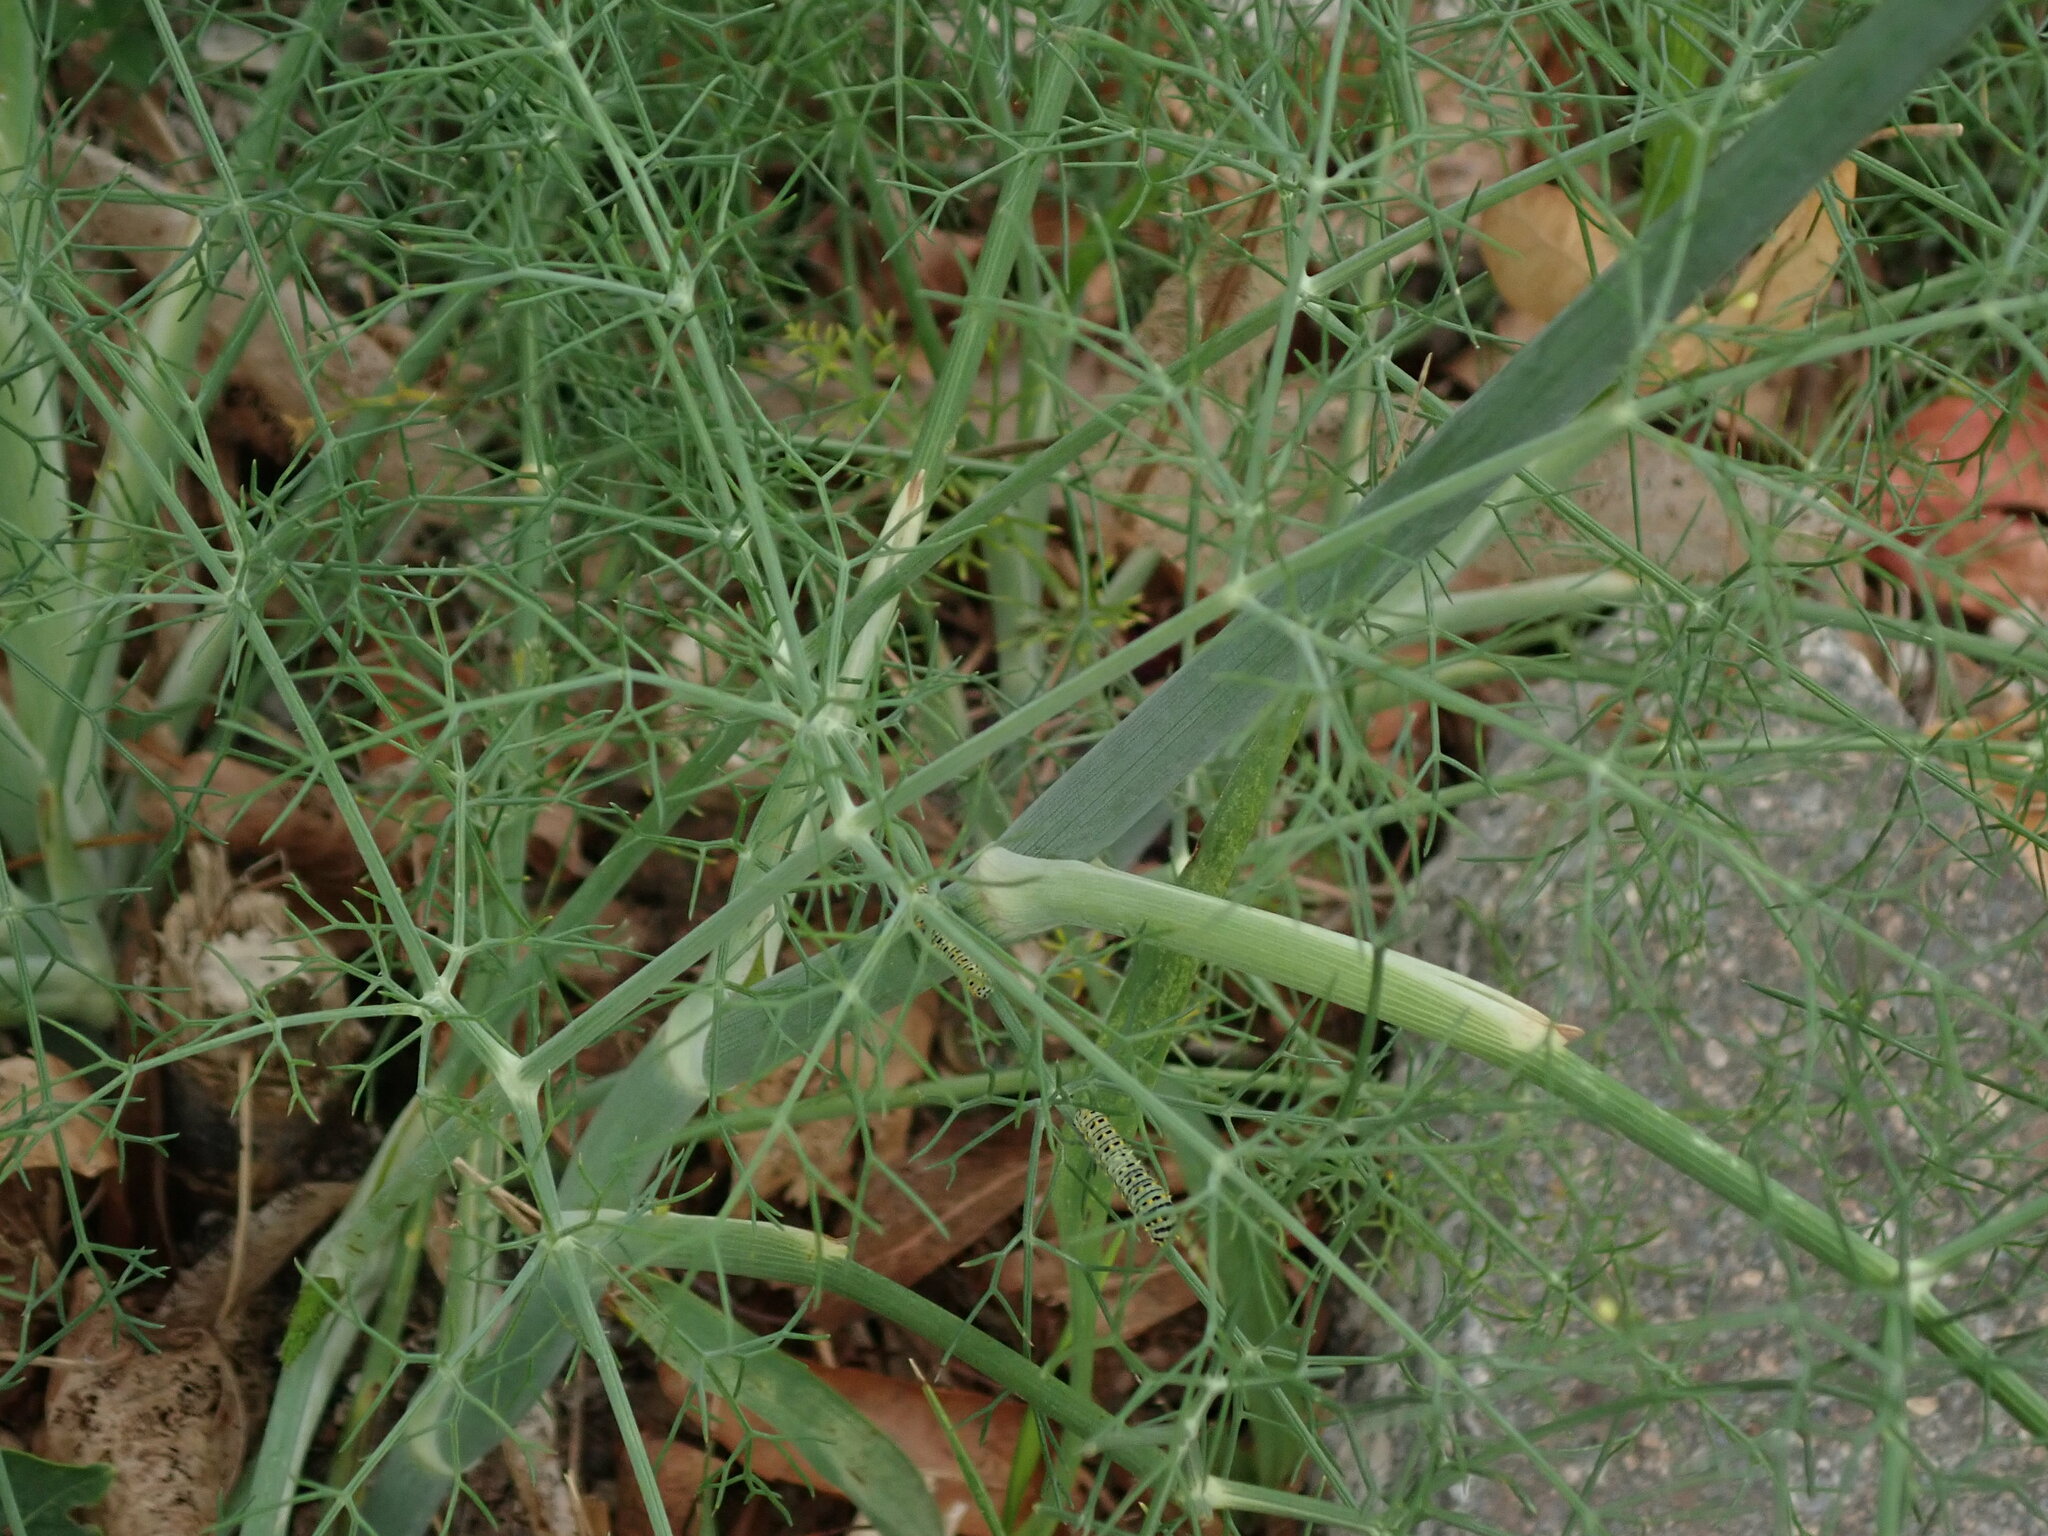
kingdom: Plantae
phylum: Tracheophyta
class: Magnoliopsida
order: Apiales
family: Apiaceae
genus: Foeniculum
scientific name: Foeniculum vulgare
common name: Fennel
